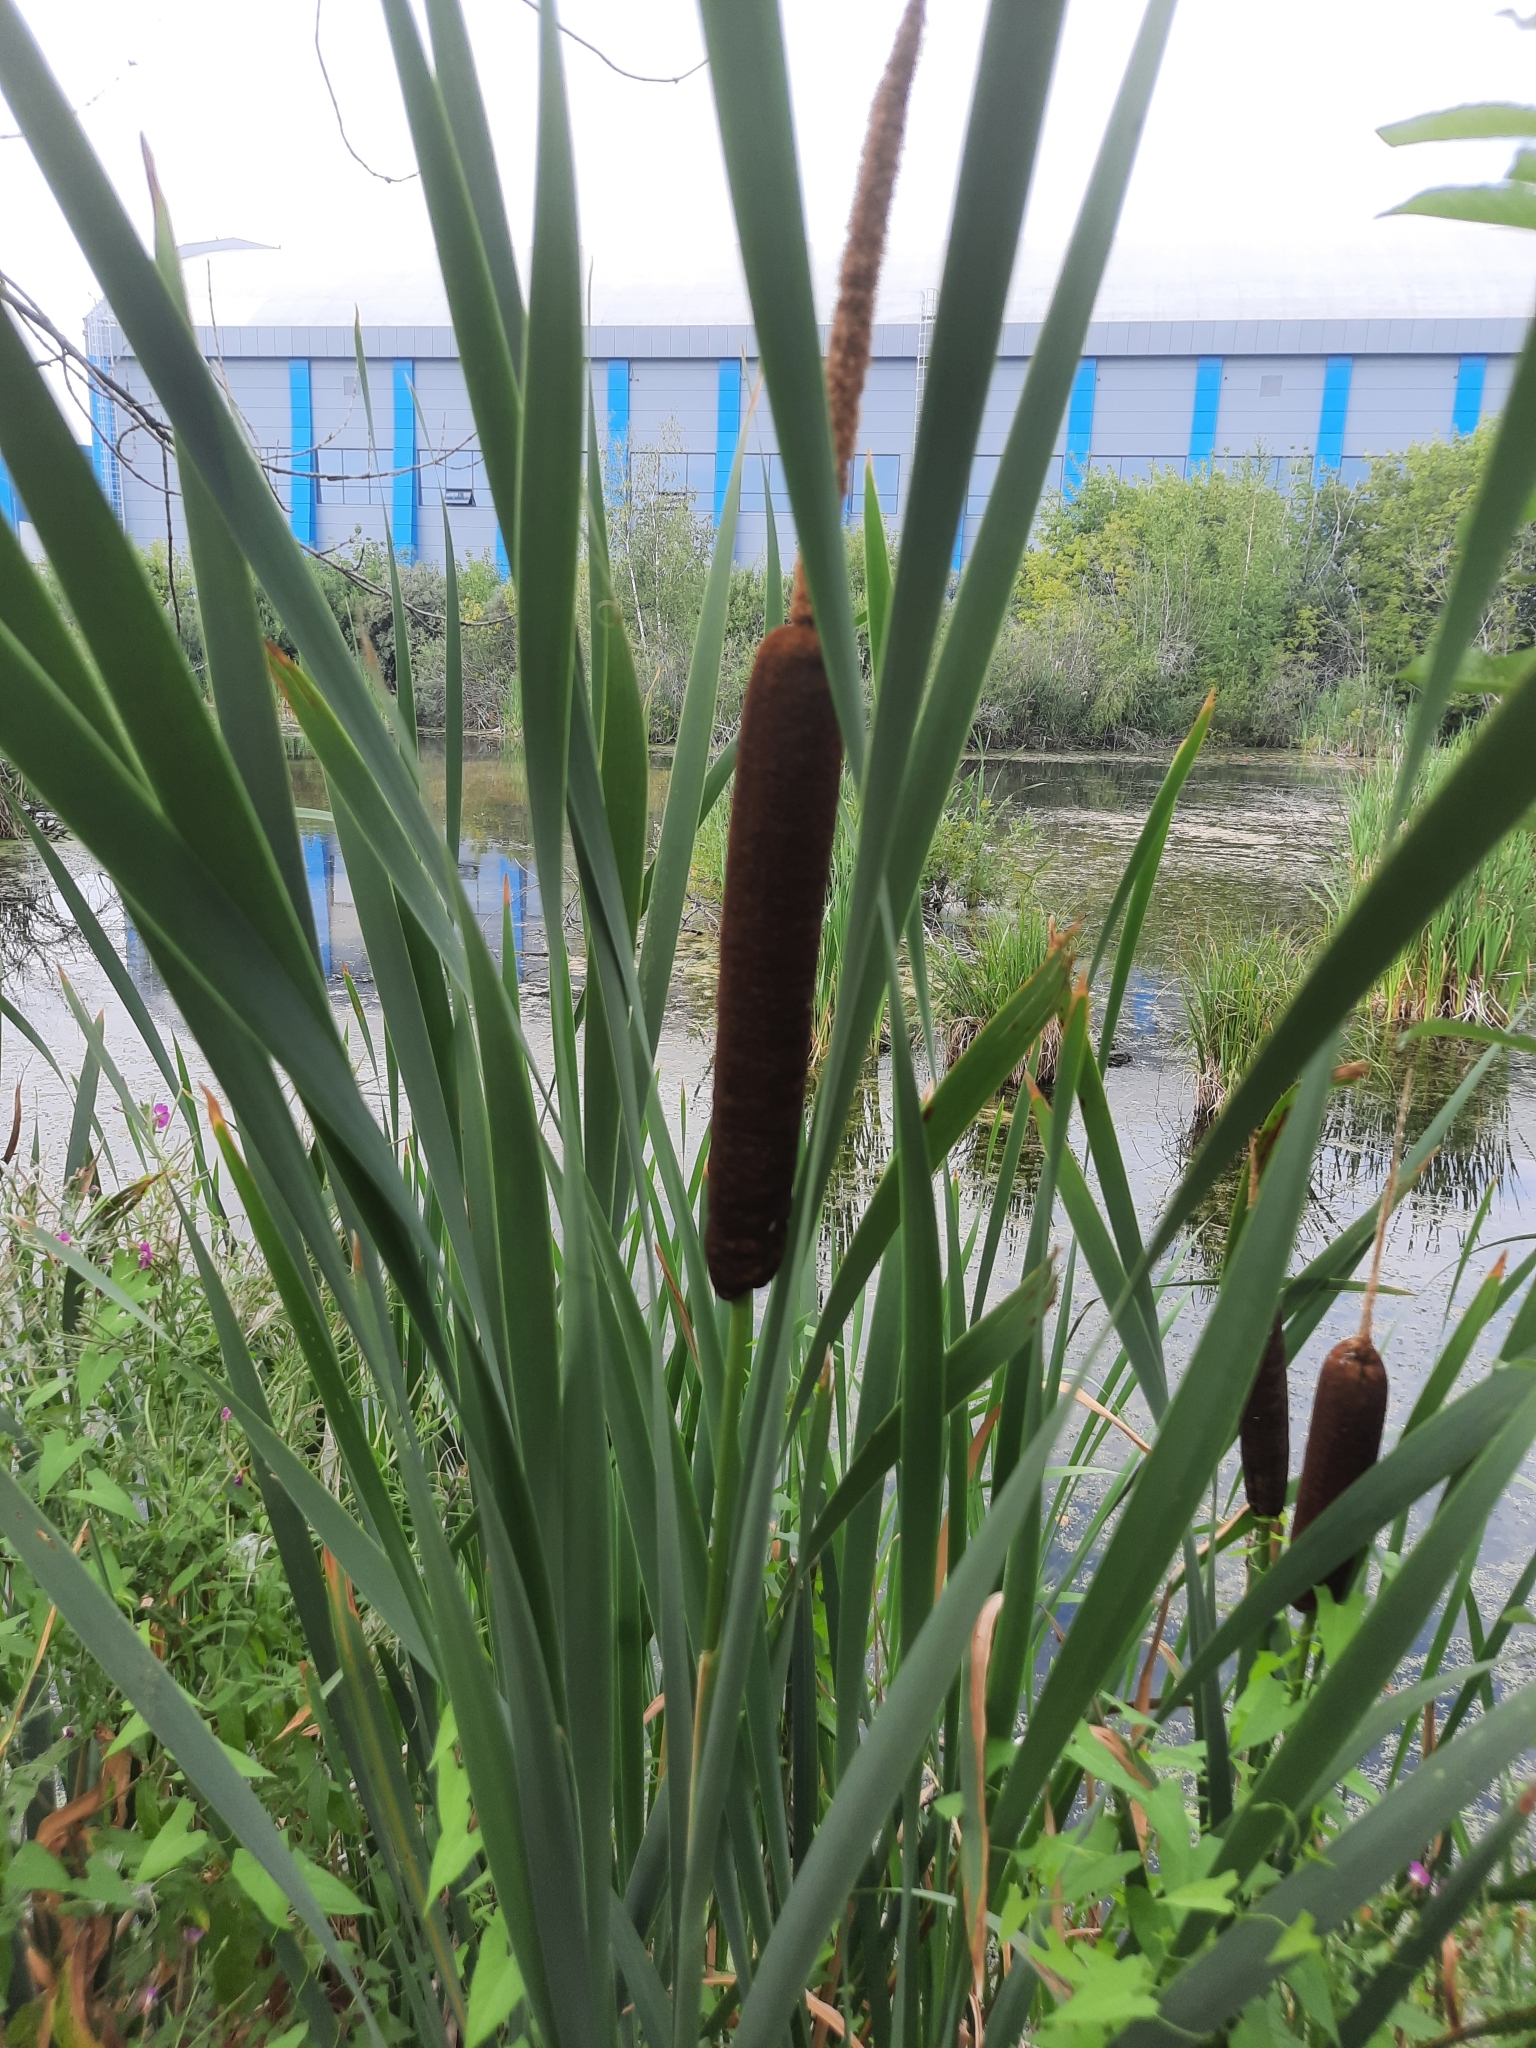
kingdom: Plantae
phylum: Tracheophyta
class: Liliopsida
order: Poales
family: Typhaceae
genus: Typha
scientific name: Typha latifolia
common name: Broadleaf cattail
